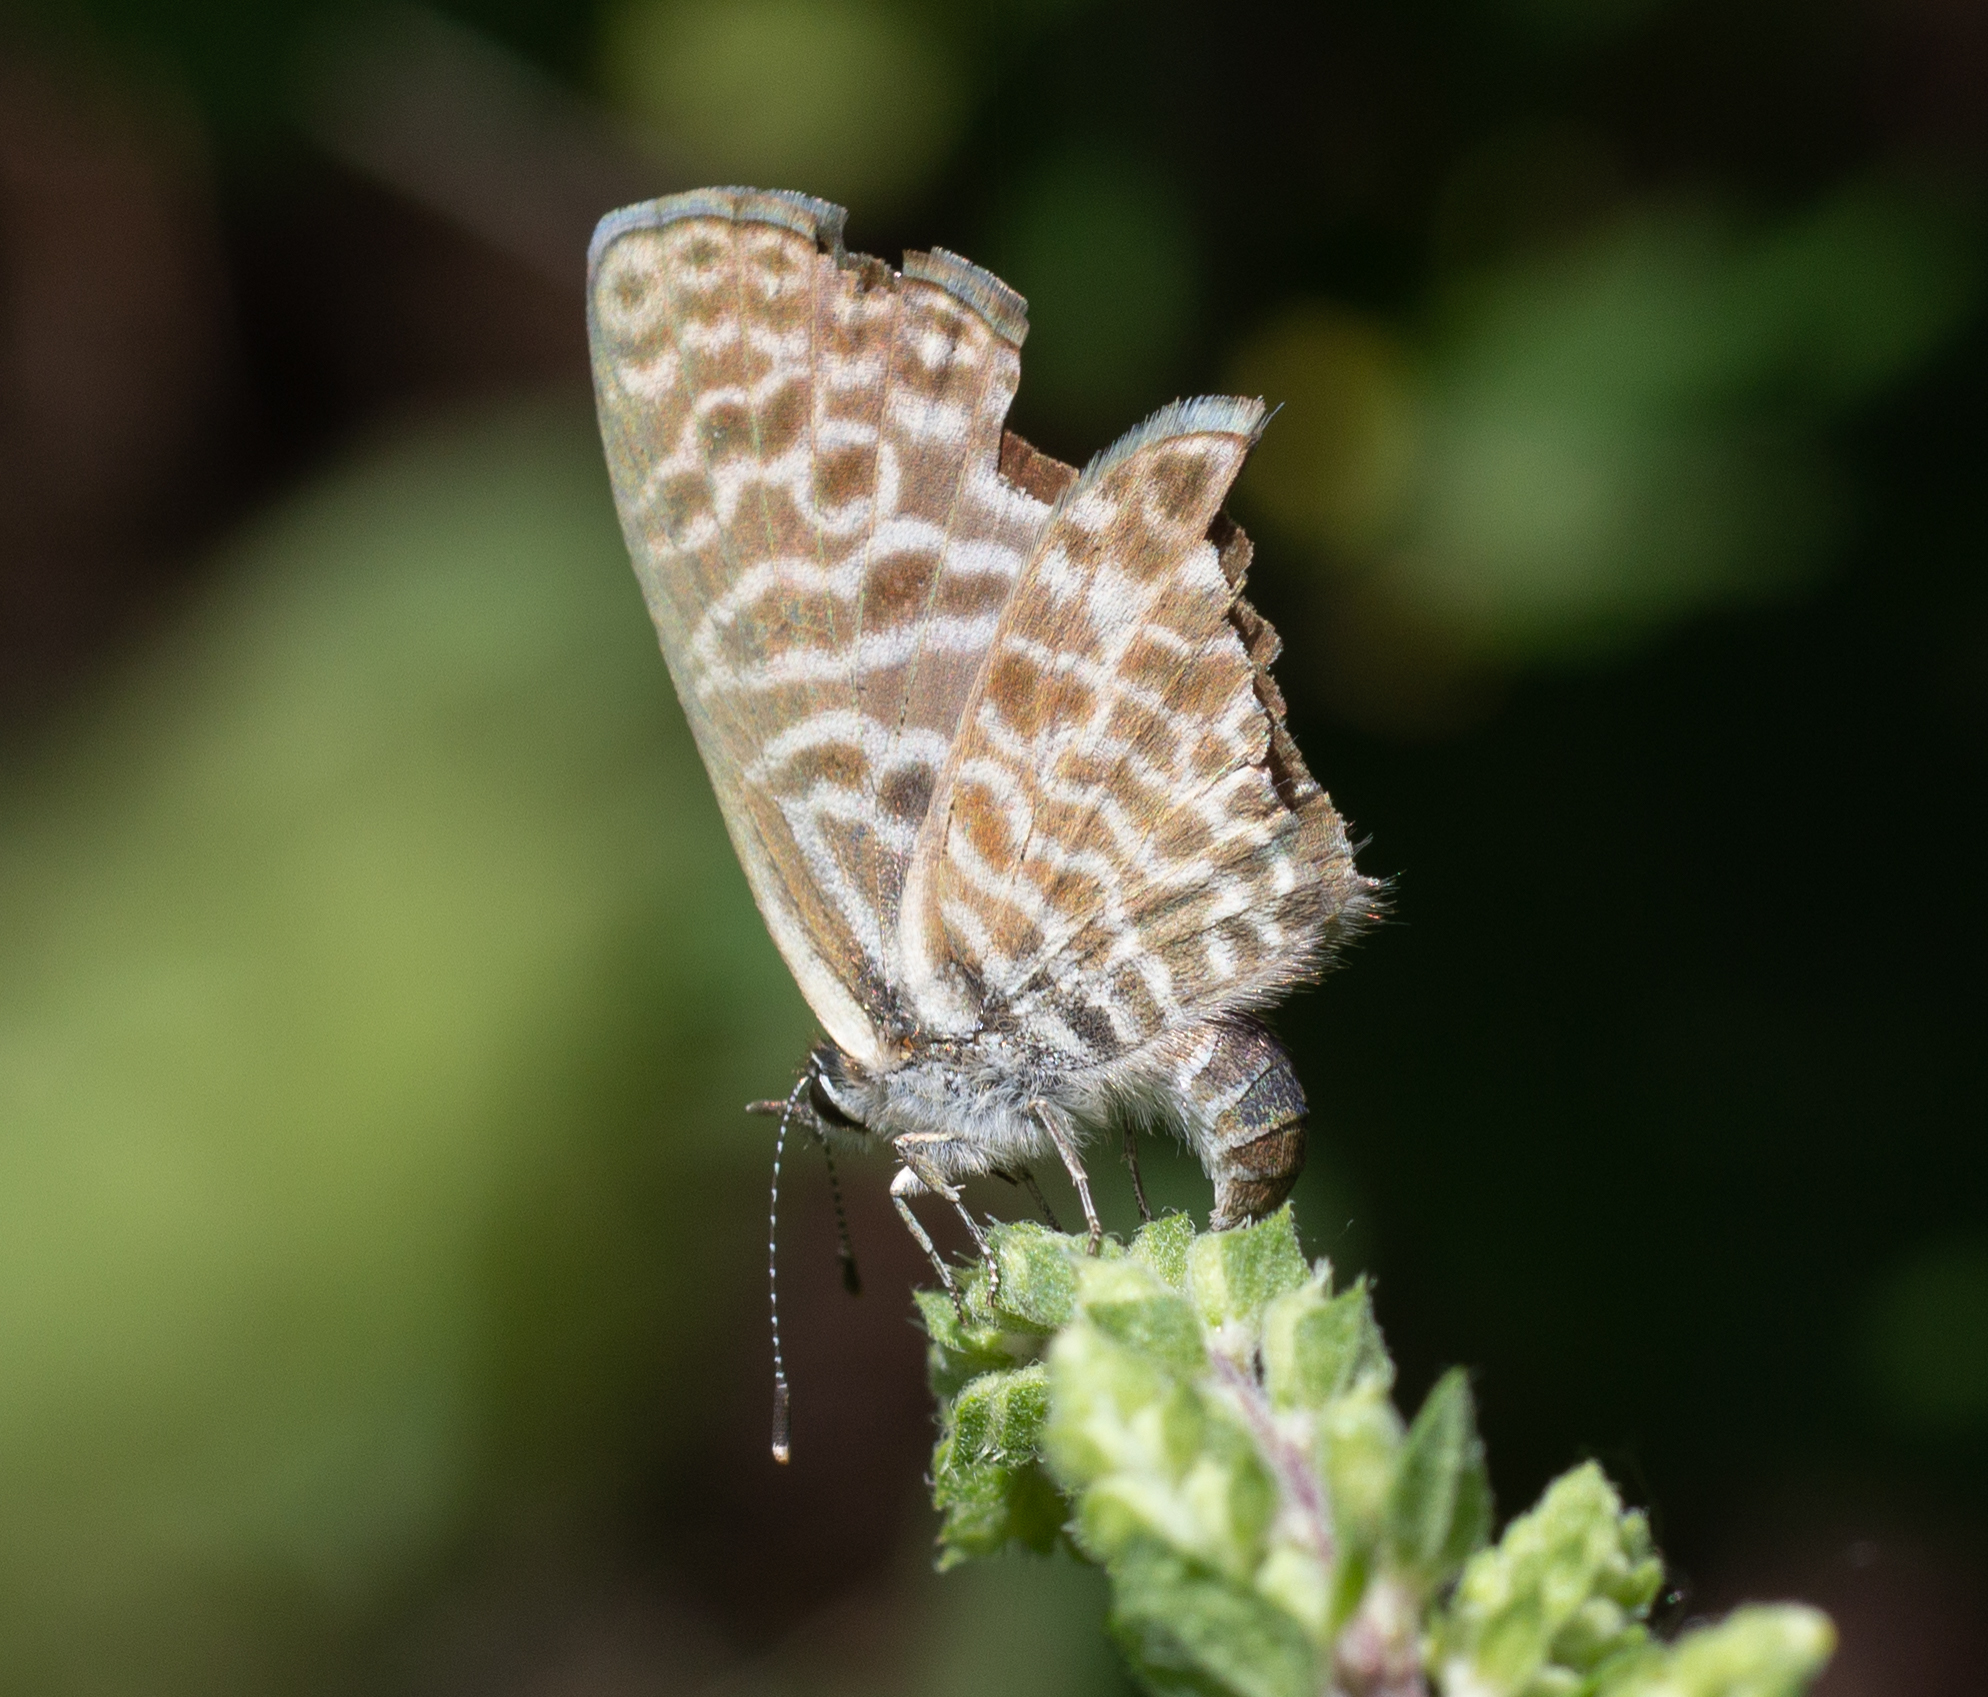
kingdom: Animalia
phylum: Arthropoda
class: Insecta
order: Lepidoptera
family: Lycaenidae
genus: Leptotes
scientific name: Leptotes pirithous
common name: Lang's short-tailed blue
